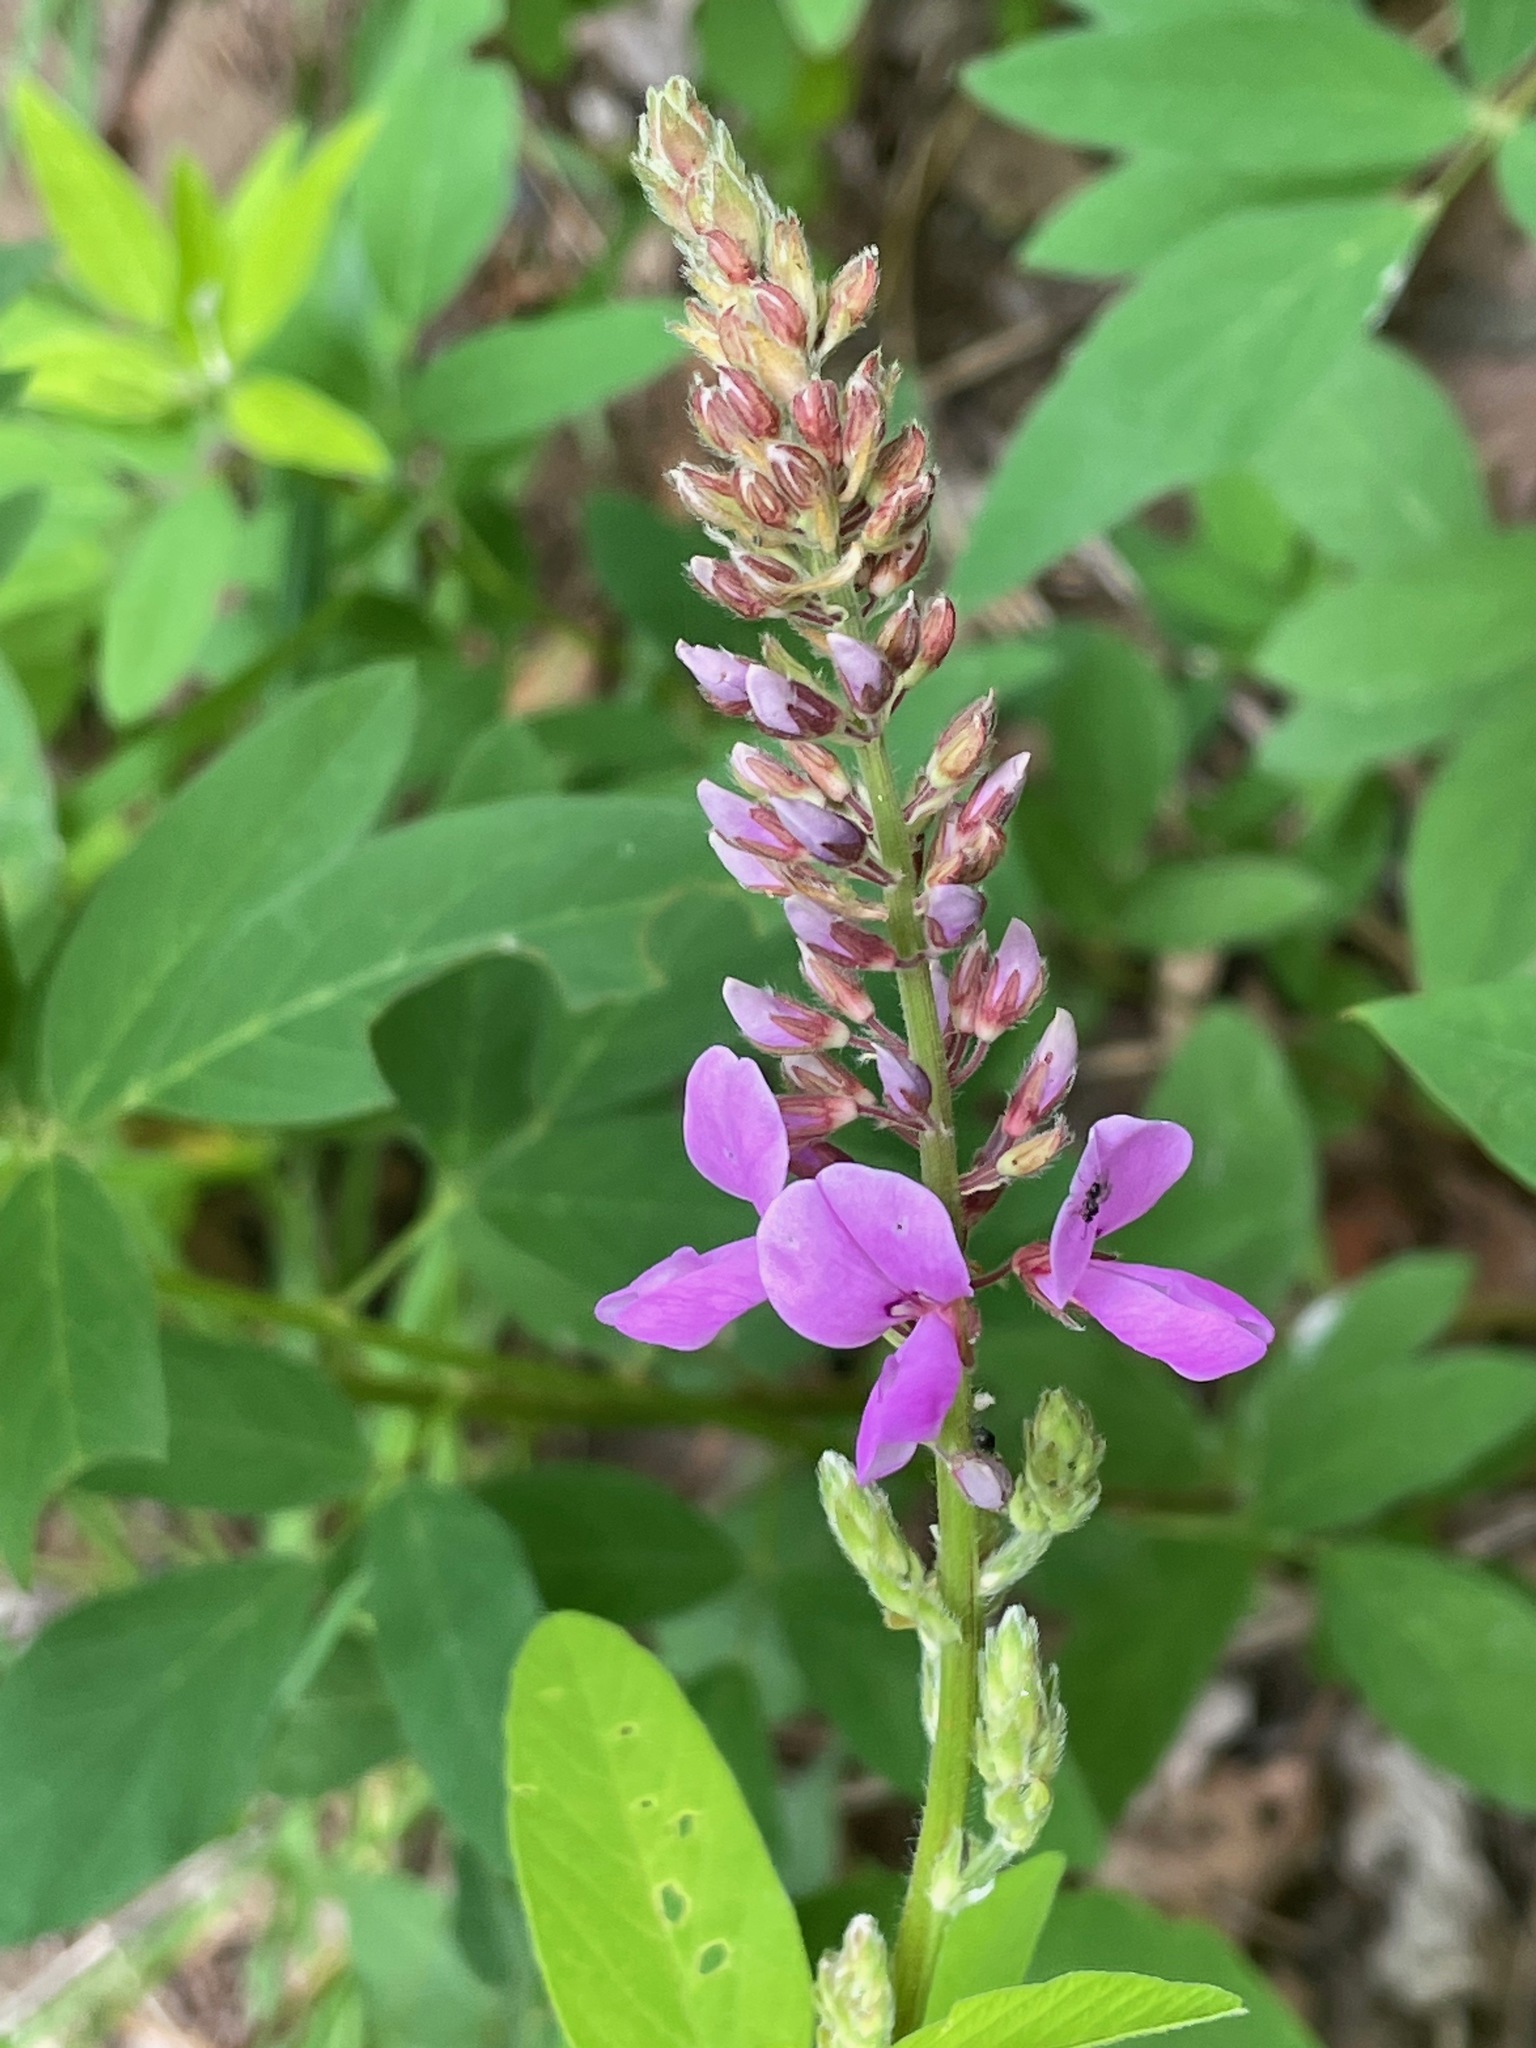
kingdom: Plantae
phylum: Tracheophyta
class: Magnoliopsida
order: Fabales
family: Fabaceae
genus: Desmodium
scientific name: Desmodium canadense
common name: Canada tick-trefoil
